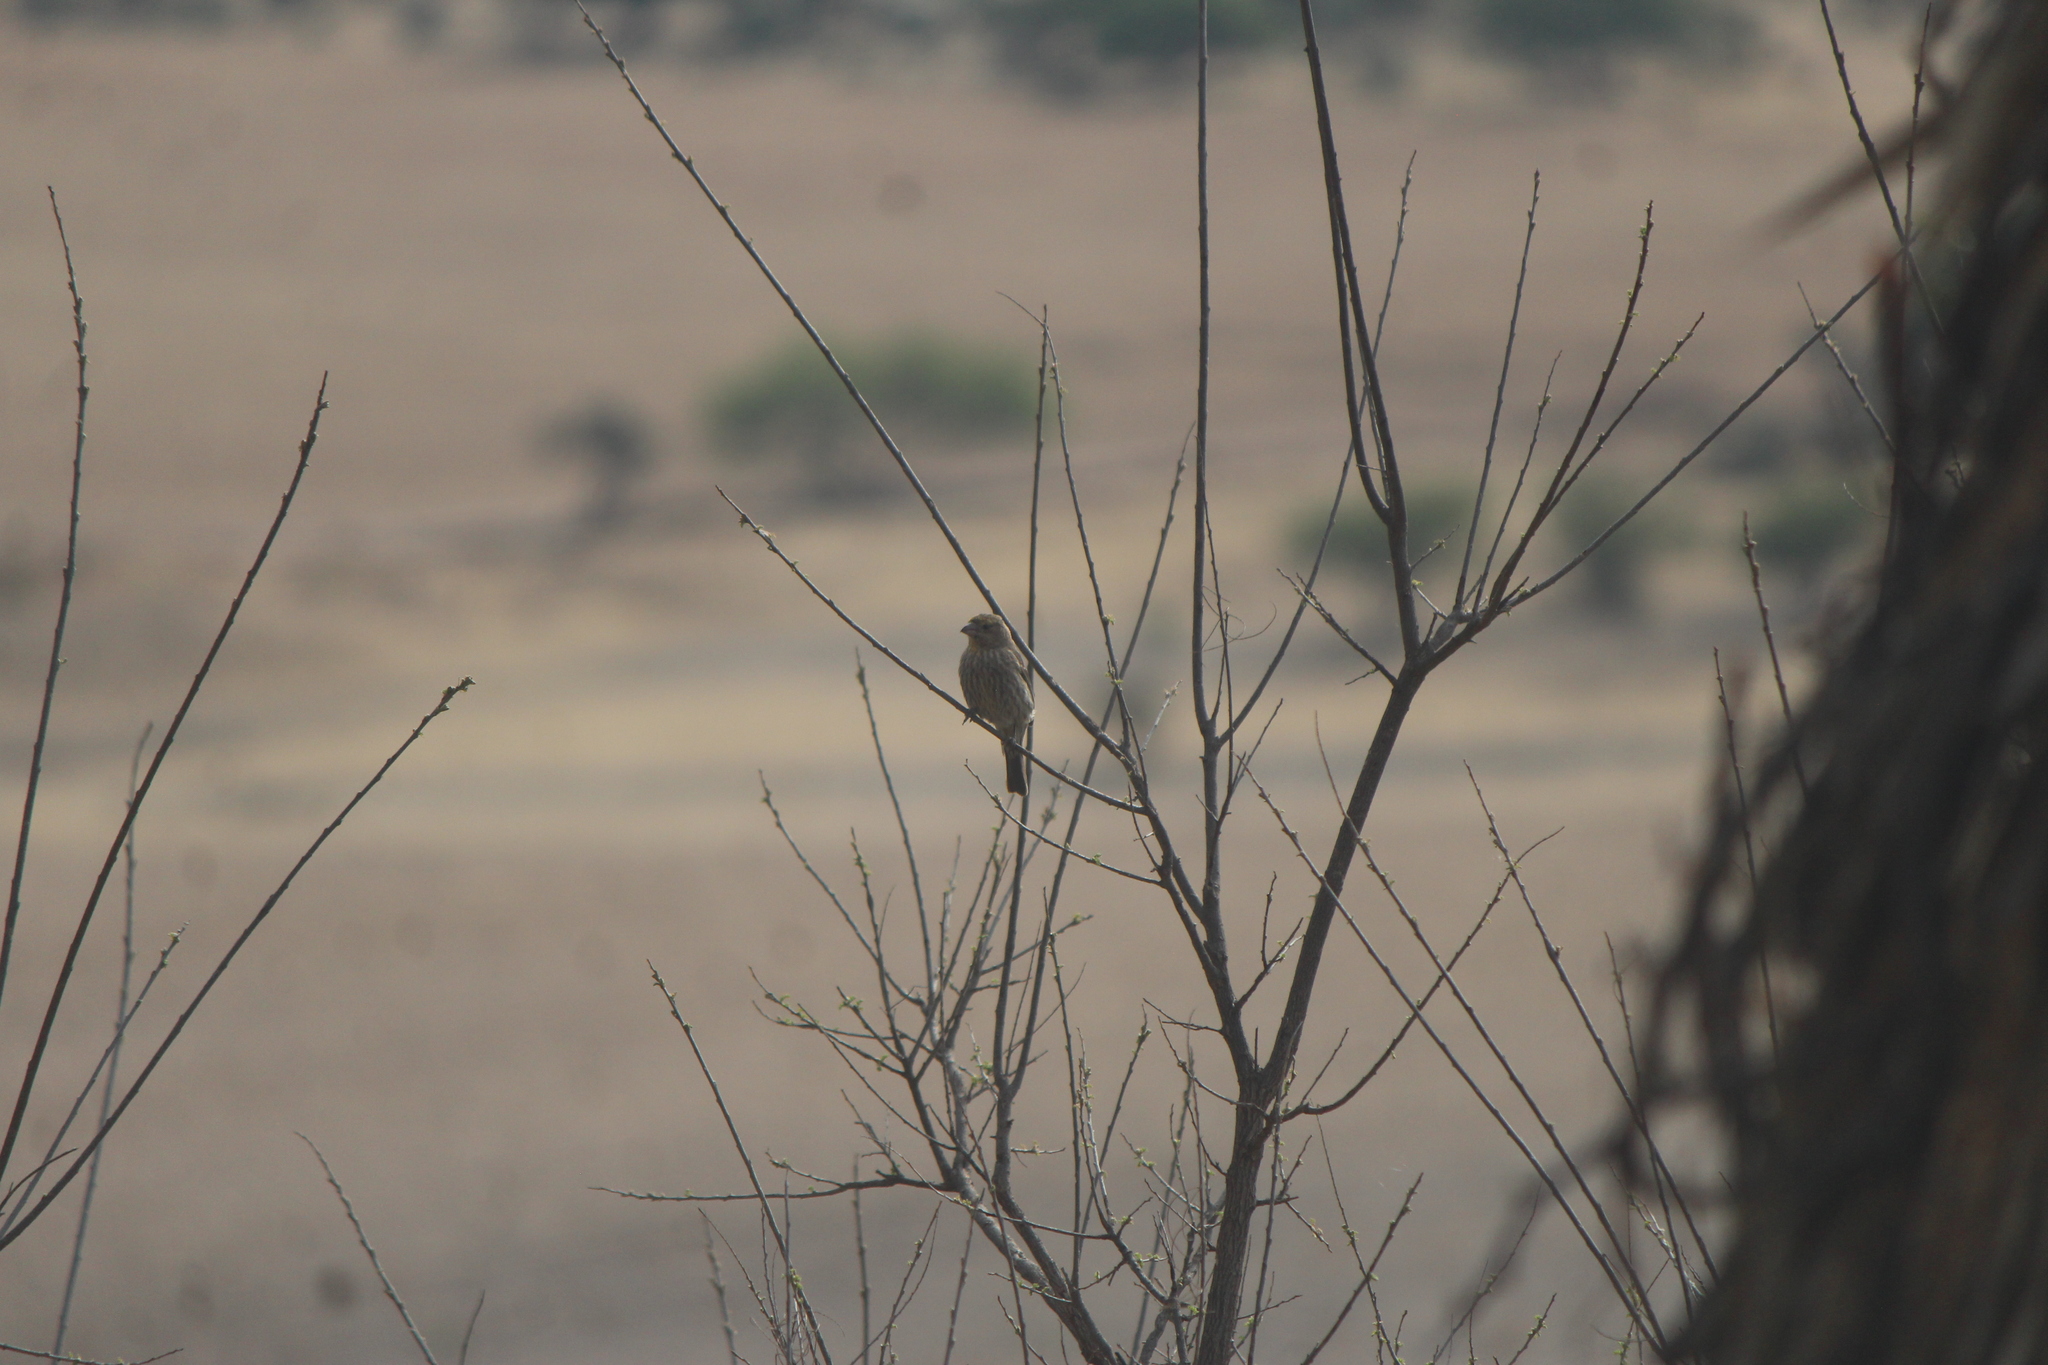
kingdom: Animalia
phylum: Chordata
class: Aves
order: Passeriformes
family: Fringillidae
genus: Haemorhous
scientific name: Haemorhous mexicanus
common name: House finch
